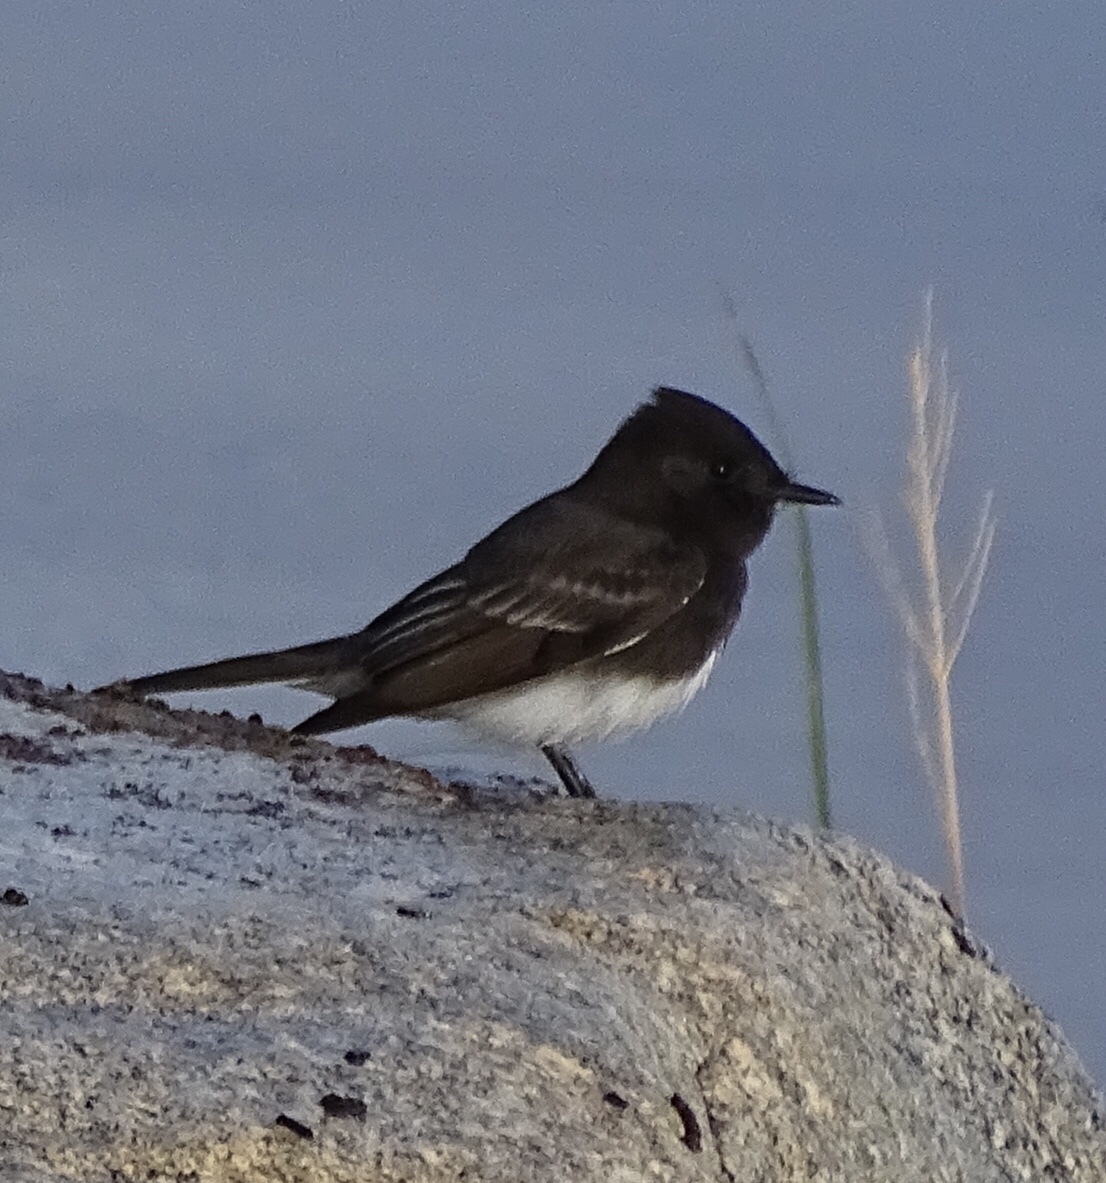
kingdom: Animalia
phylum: Chordata
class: Aves
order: Passeriformes
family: Tyrannidae
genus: Sayornis
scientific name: Sayornis nigricans
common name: Black phoebe
